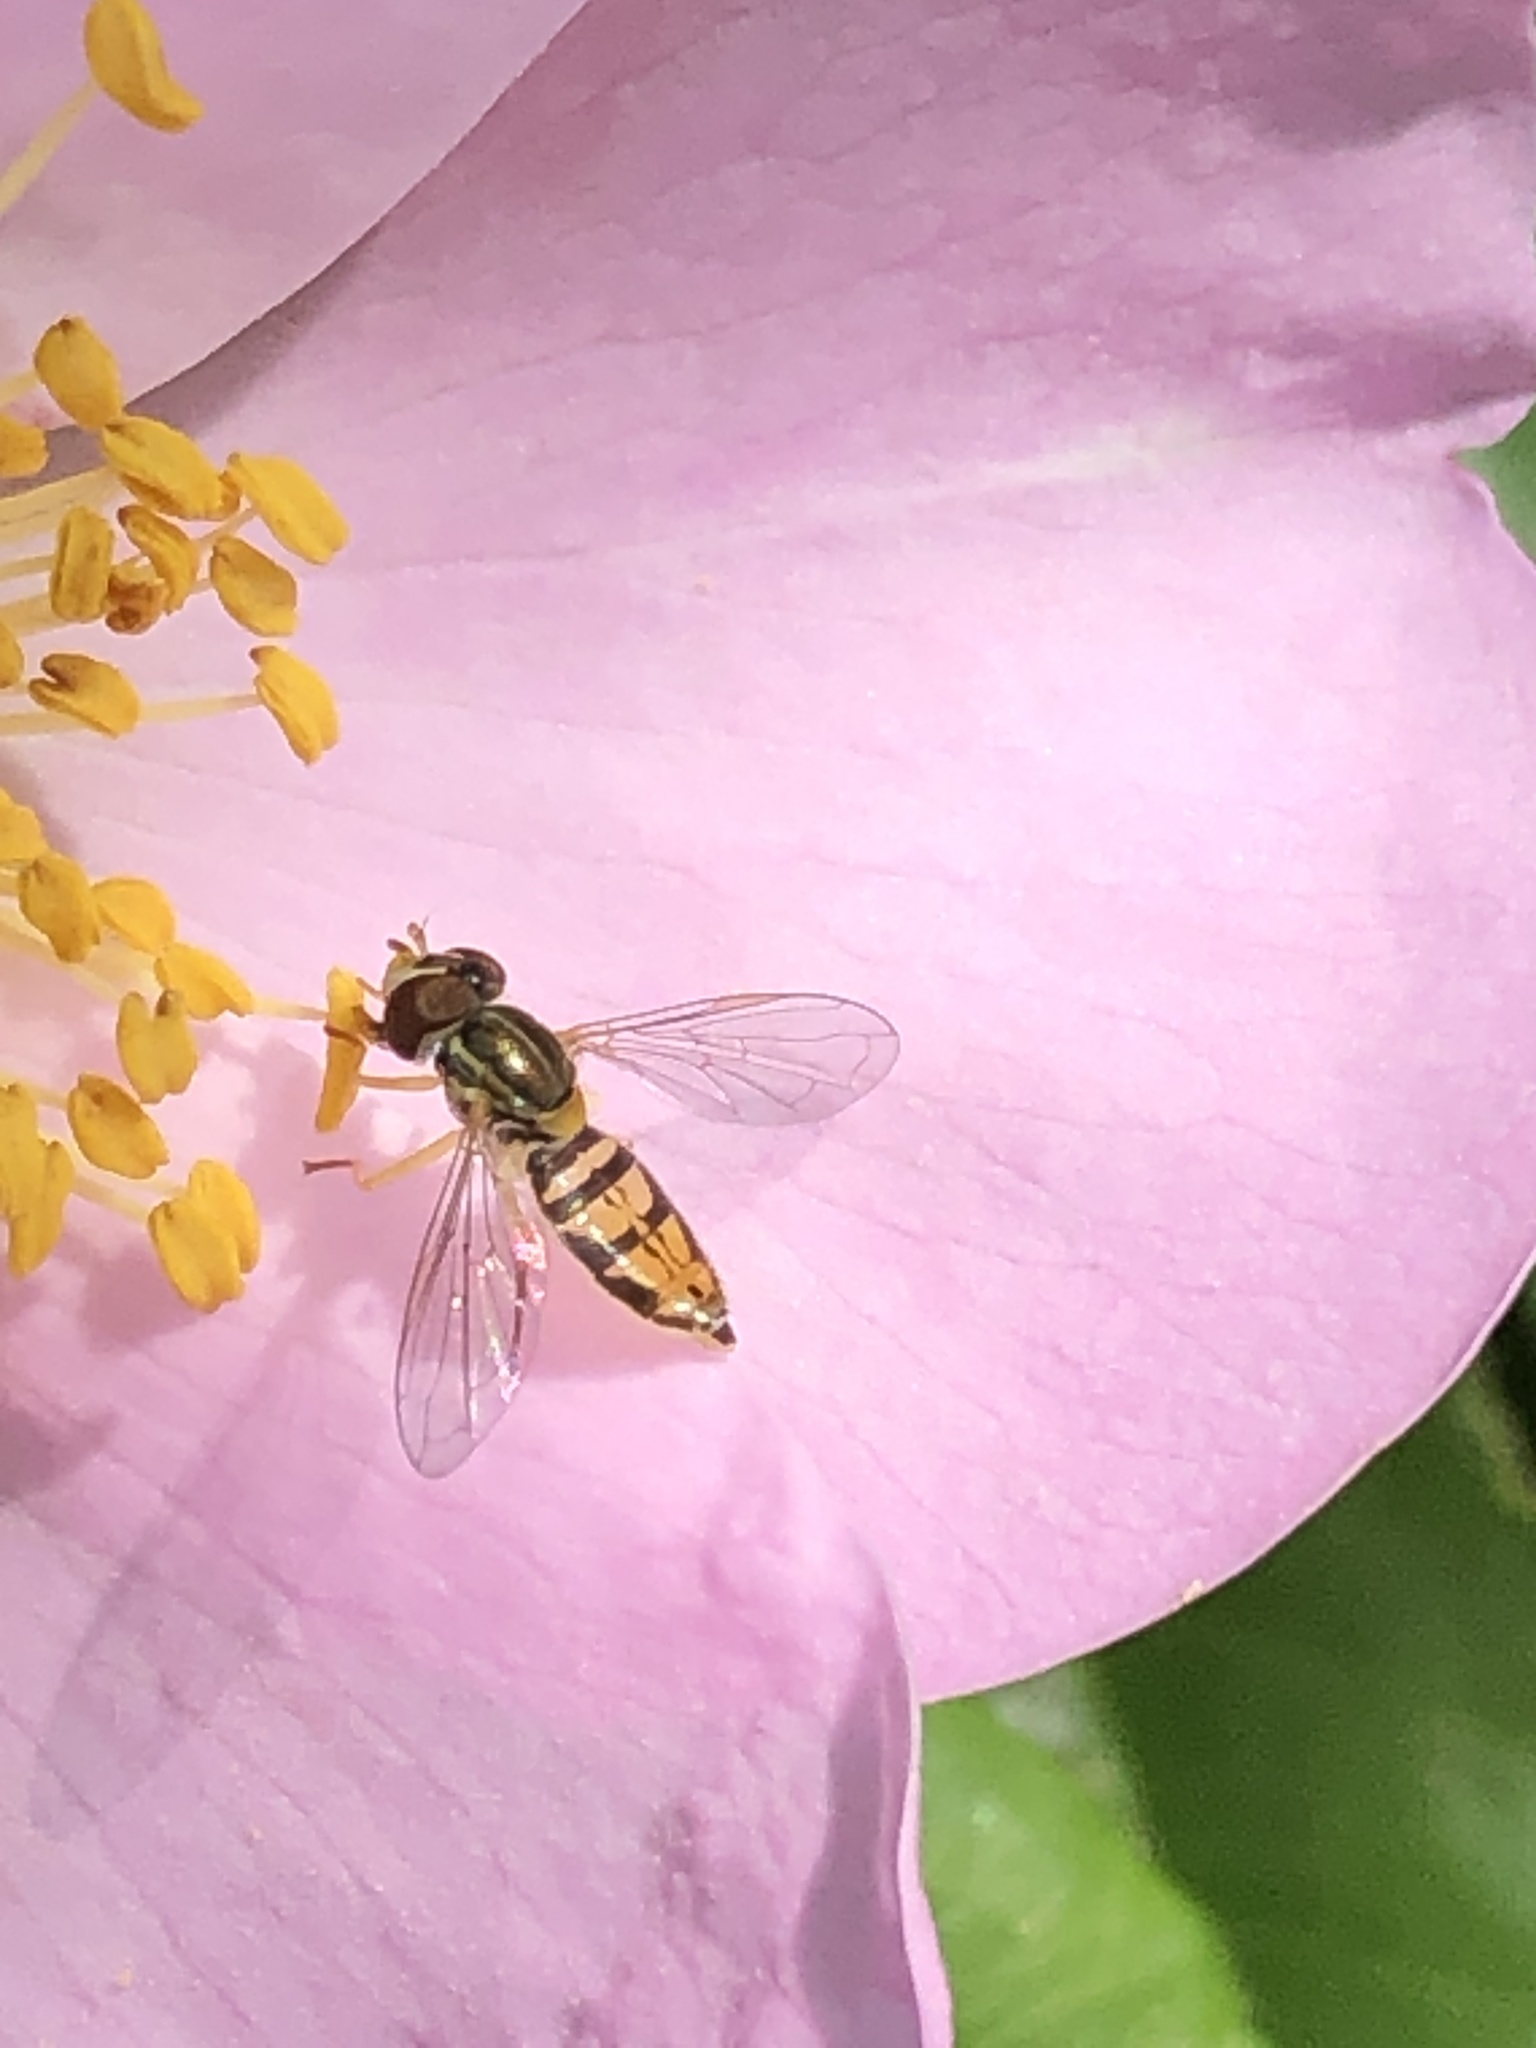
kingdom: Animalia
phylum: Arthropoda
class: Insecta
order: Diptera
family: Syrphidae
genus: Toxomerus
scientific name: Toxomerus marginatus
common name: Syrphid fly
